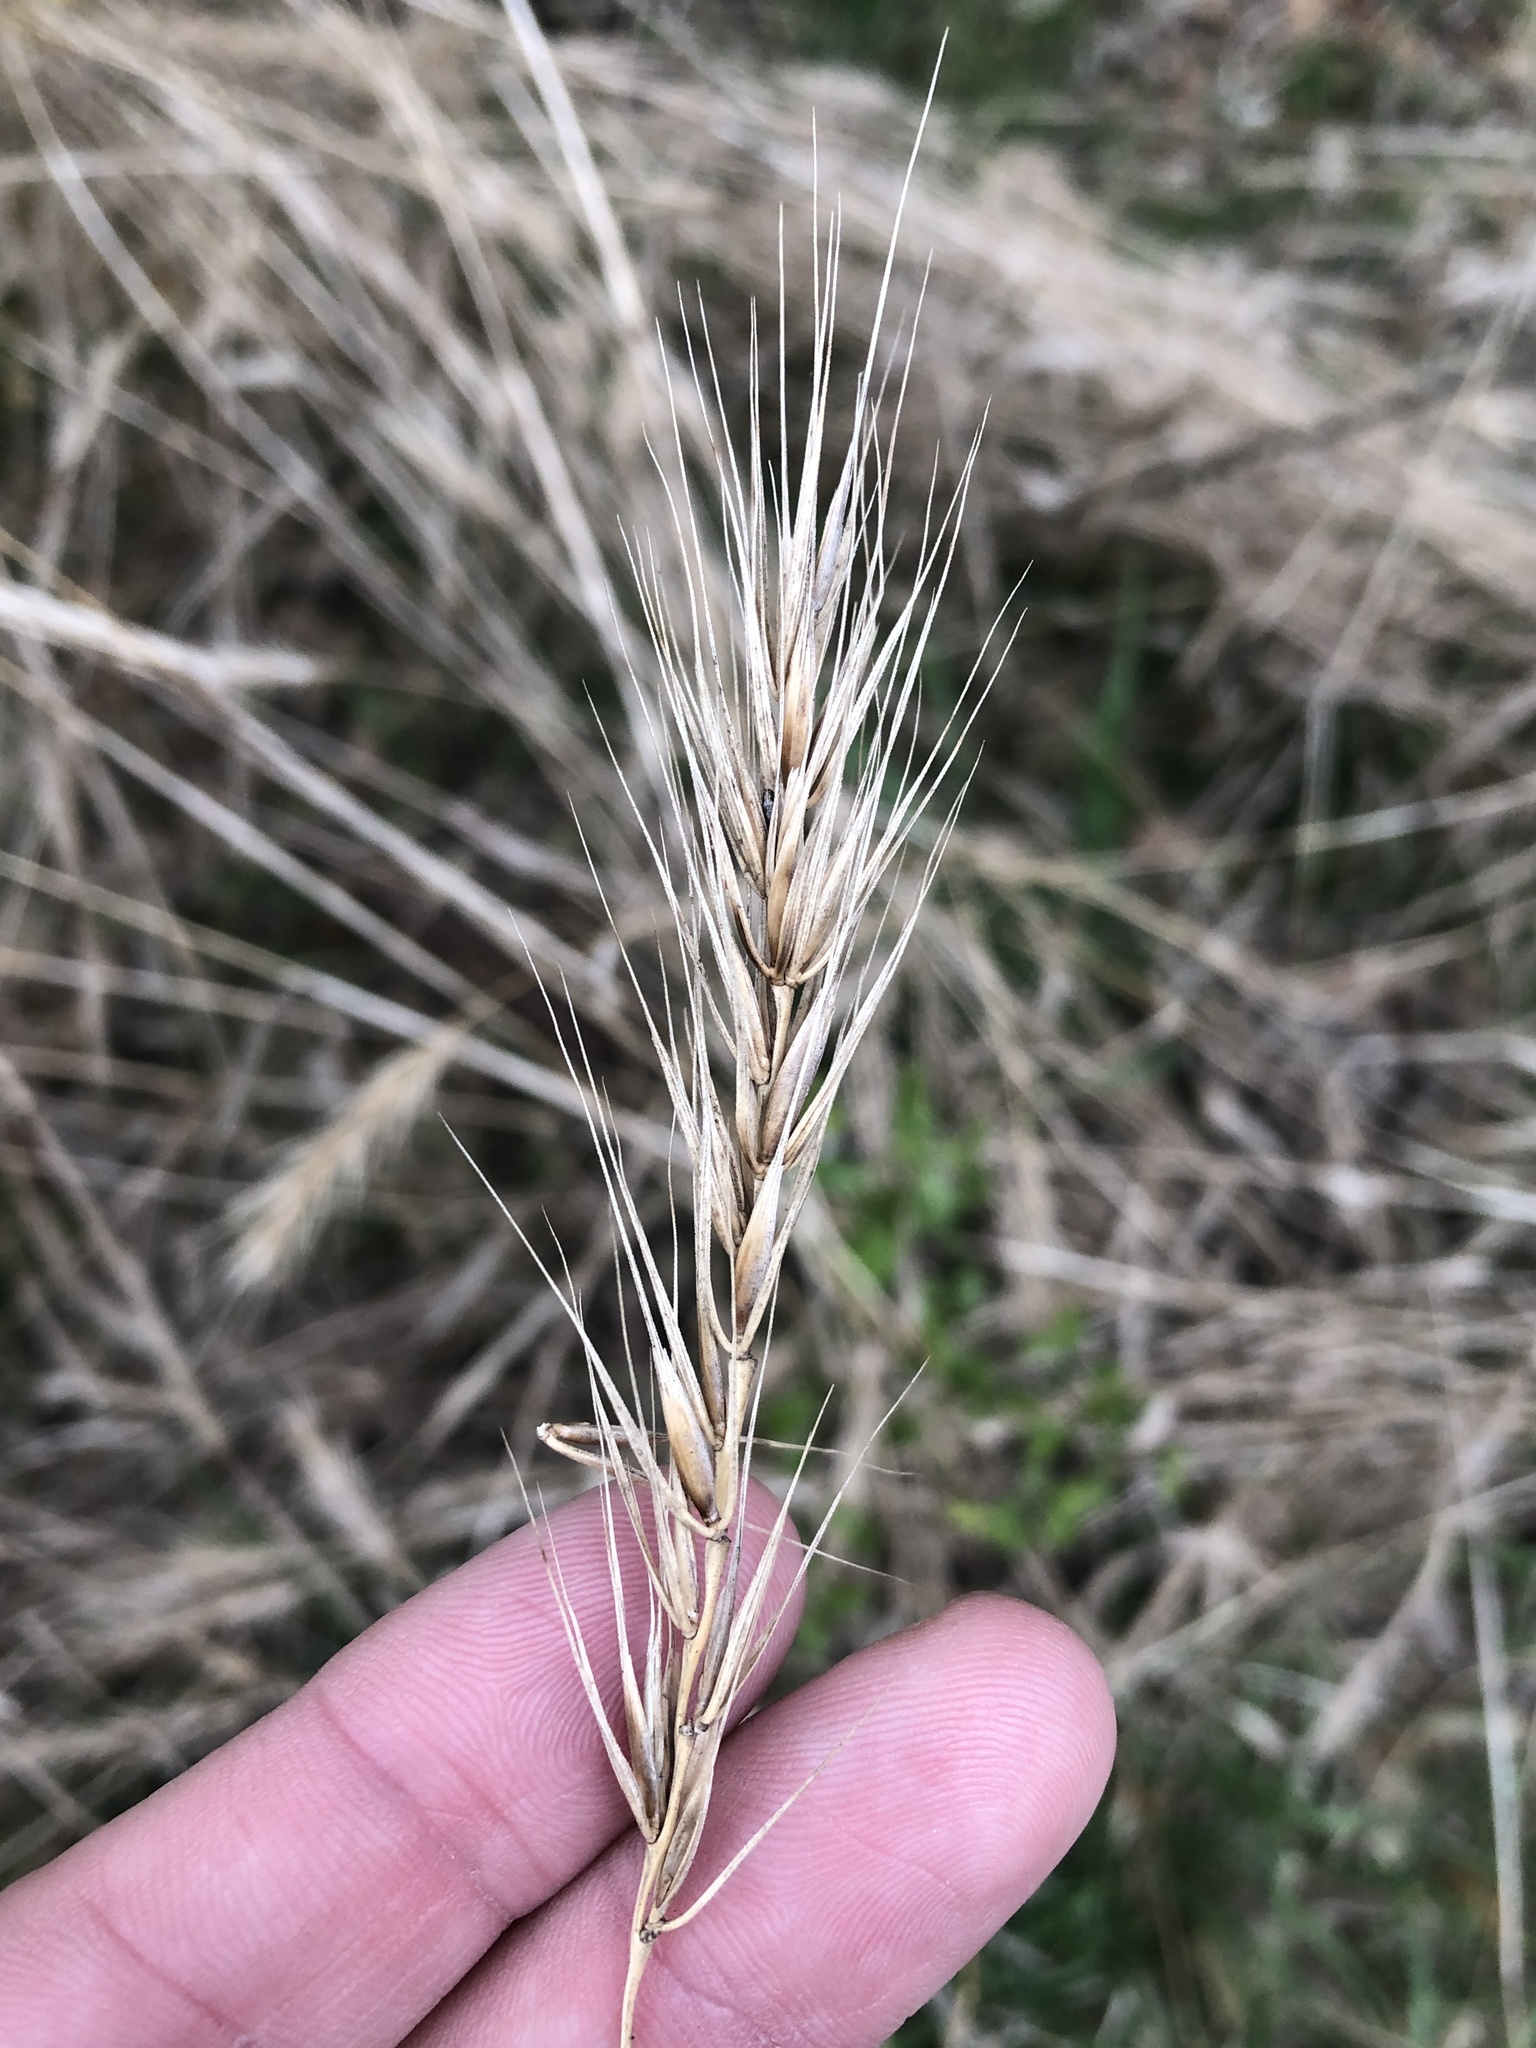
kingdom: Plantae
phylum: Tracheophyta
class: Liliopsida
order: Poales
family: Poaceae
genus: Elymus
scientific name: Elymus virginicus
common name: Common eastern wildrye
